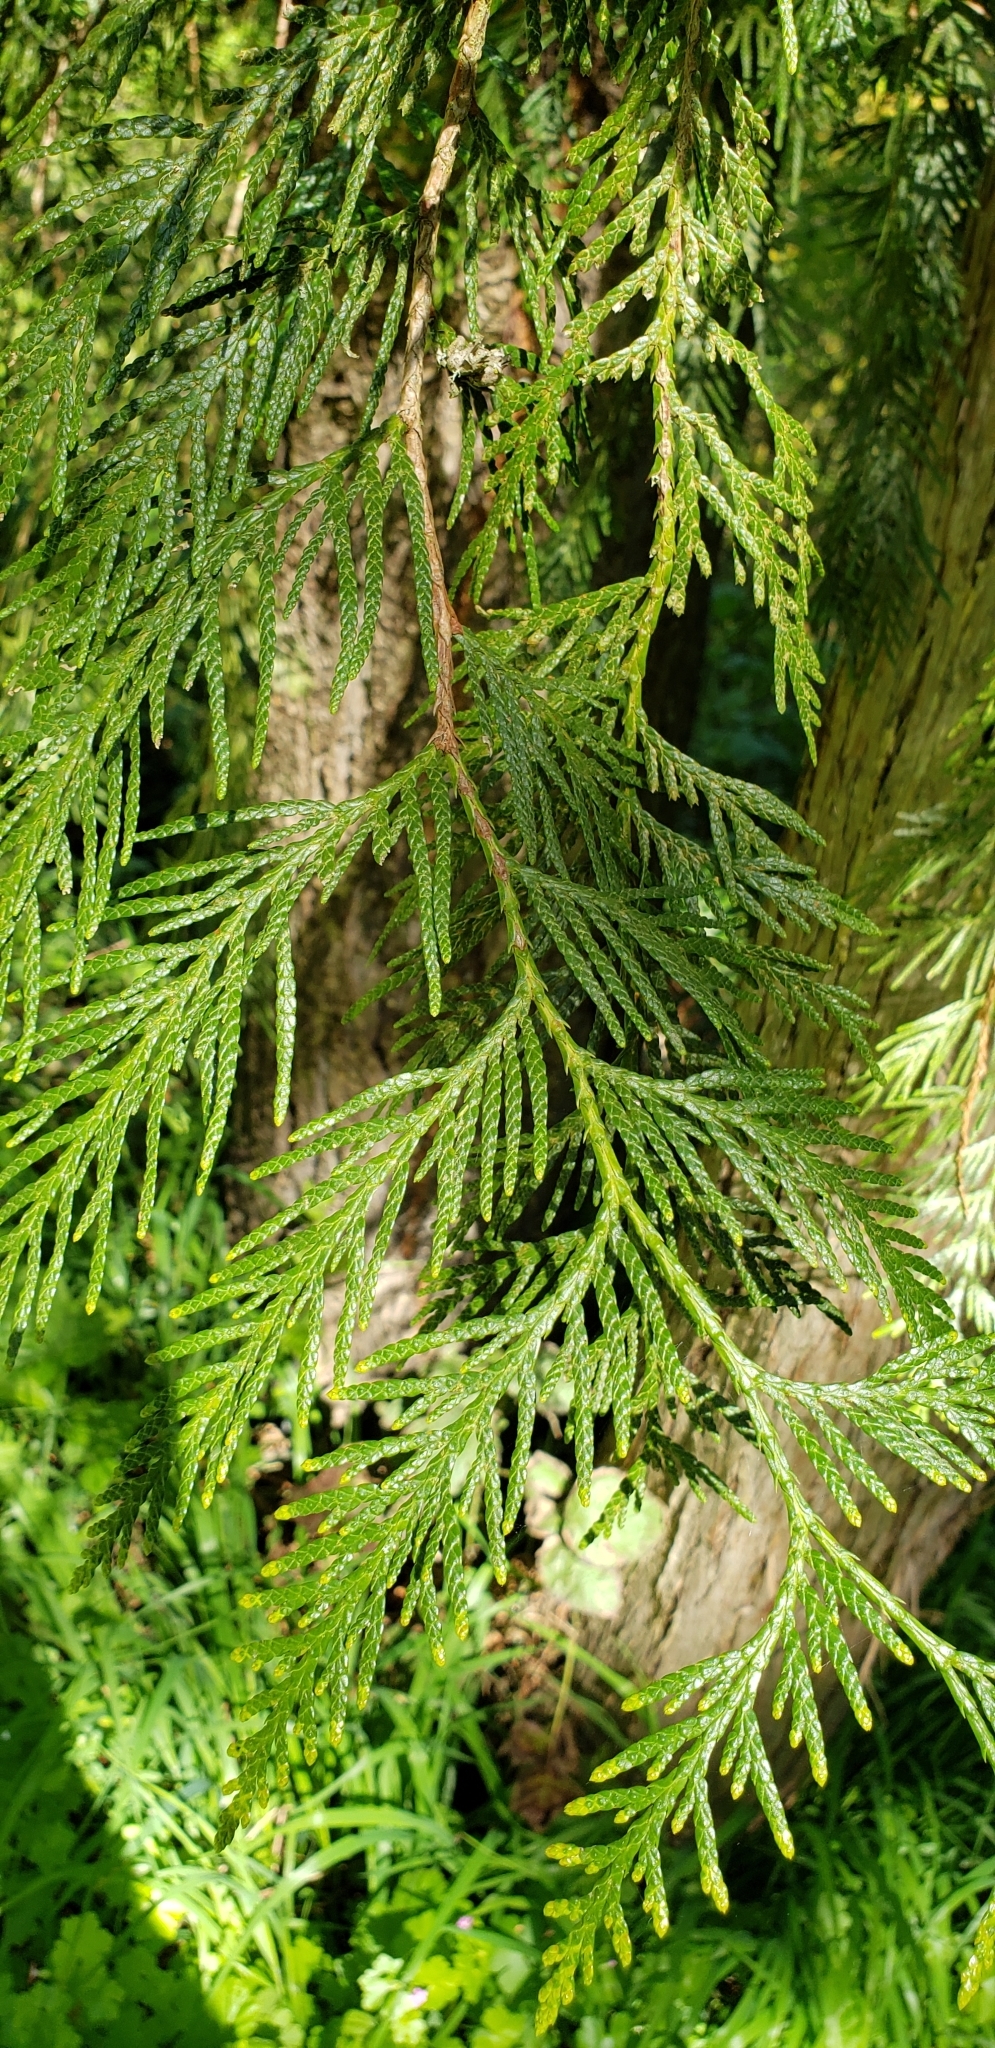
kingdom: Plantae
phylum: Tracheophyta
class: Pinopsida
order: Pinales
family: Cupressaceae
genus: Thuja
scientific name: Thuja plicata
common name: Western red-cedar
